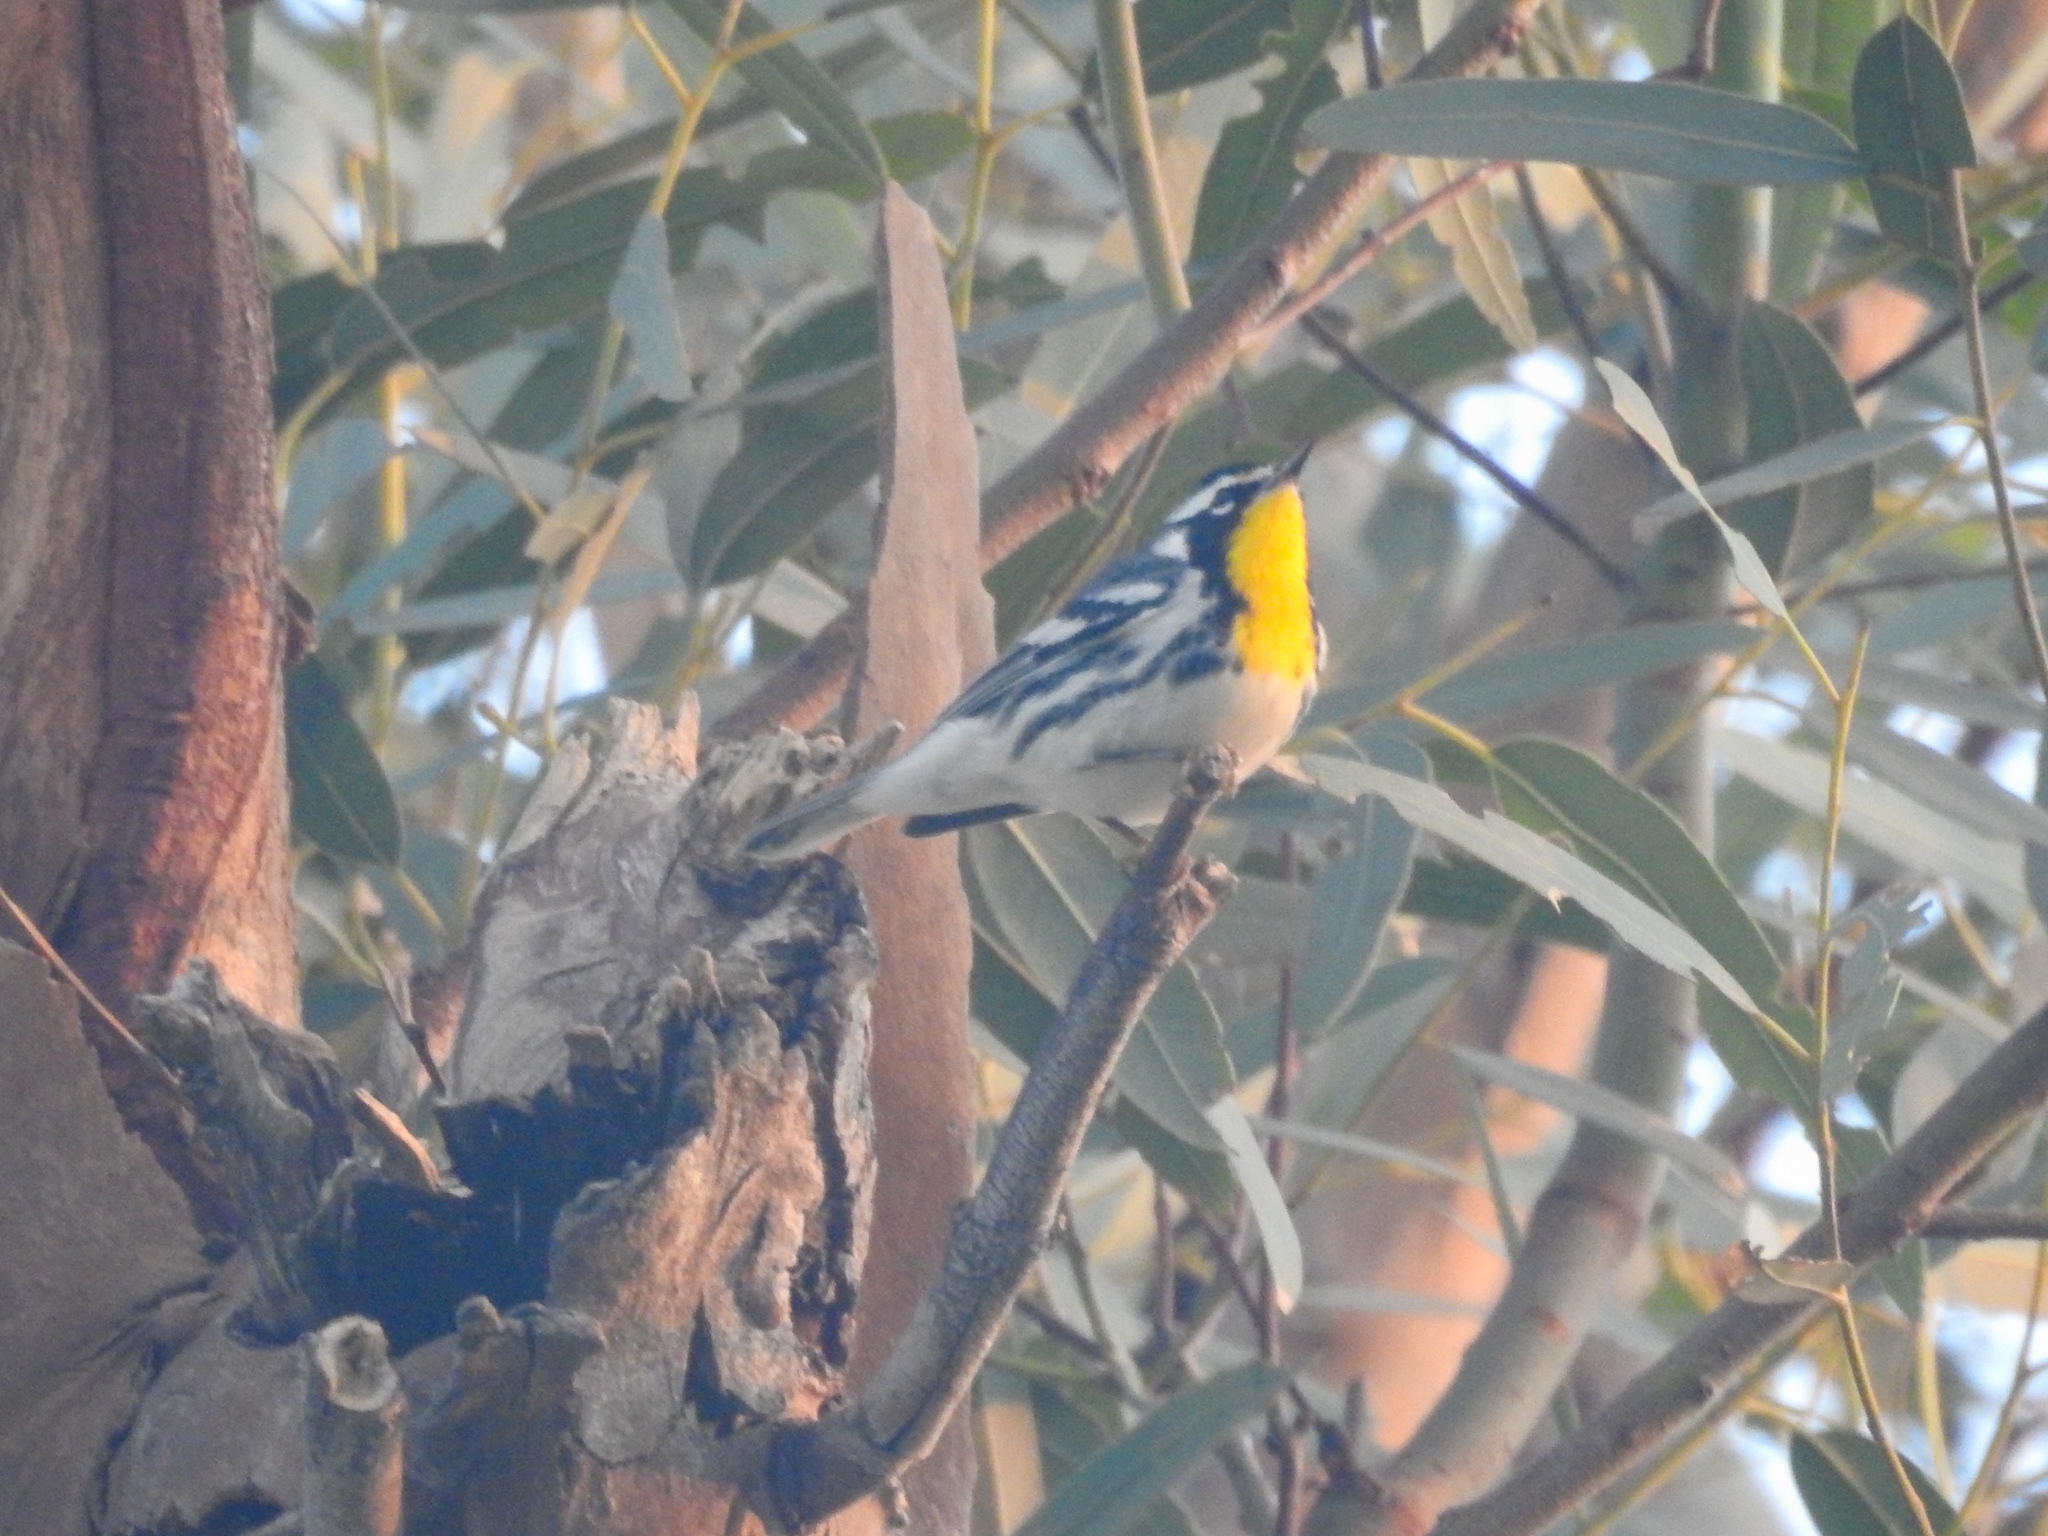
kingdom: Animalia
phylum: Chordata
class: Aves
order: Passeriformes
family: Parulidae
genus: Setophaga
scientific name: Setophaga dominica
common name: Yellow-throated warbler
